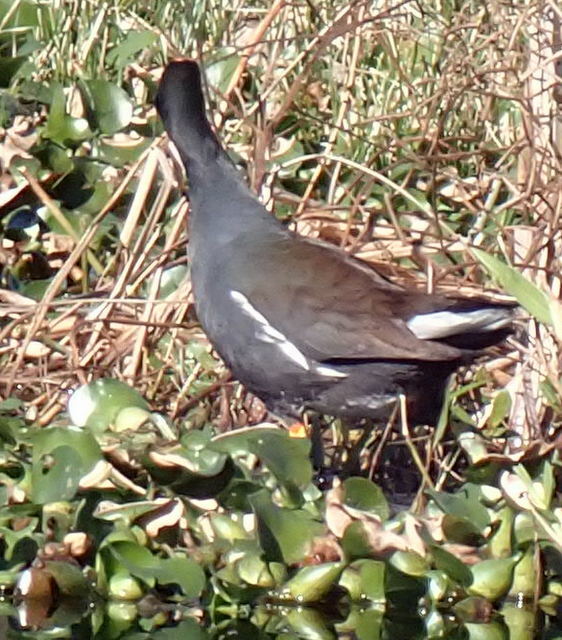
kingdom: Animalia
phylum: Chordata
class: Aves
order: Gruiformes
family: Rallidae
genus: Gallinula
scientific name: Gallinula chloropus
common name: Common moorhen
